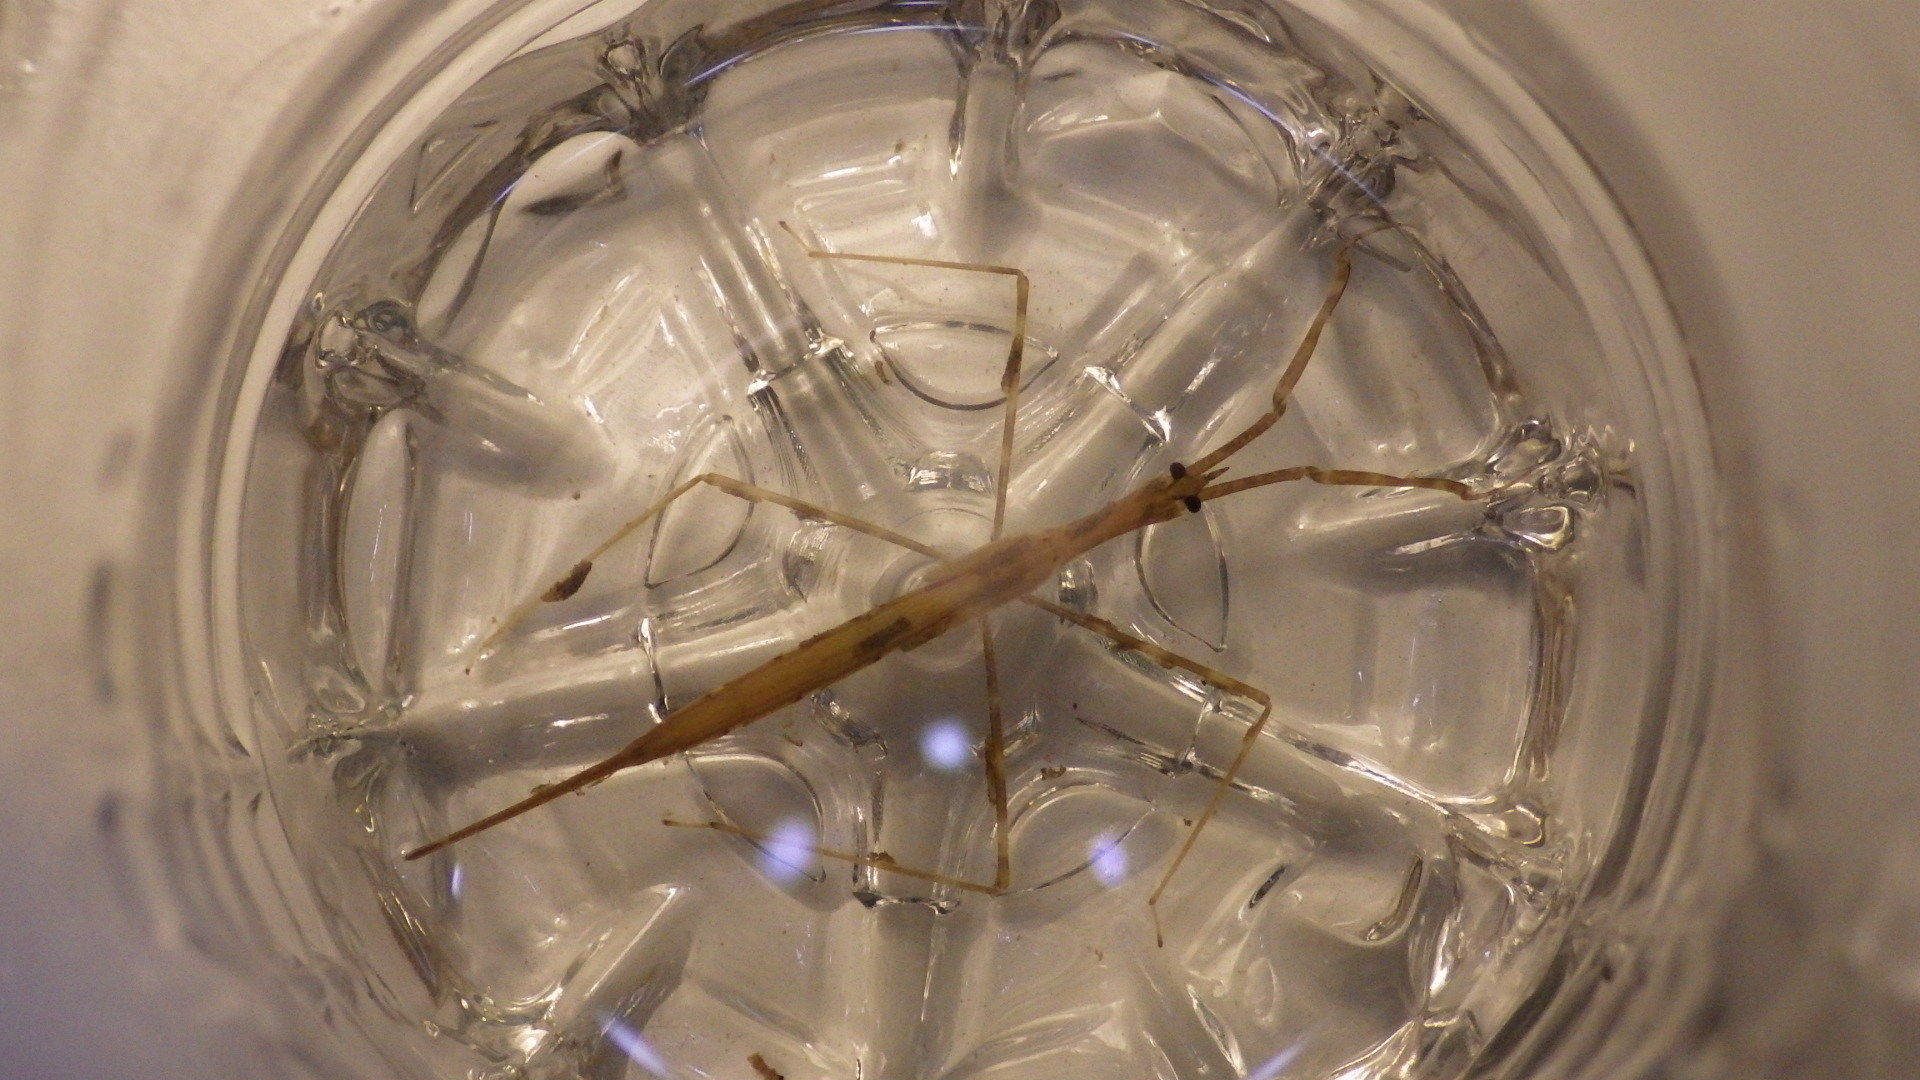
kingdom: Animalia
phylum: Arthropoda
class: Insecta
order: Hemiptera
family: Nepidae
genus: Ranatra
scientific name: Ranatra
